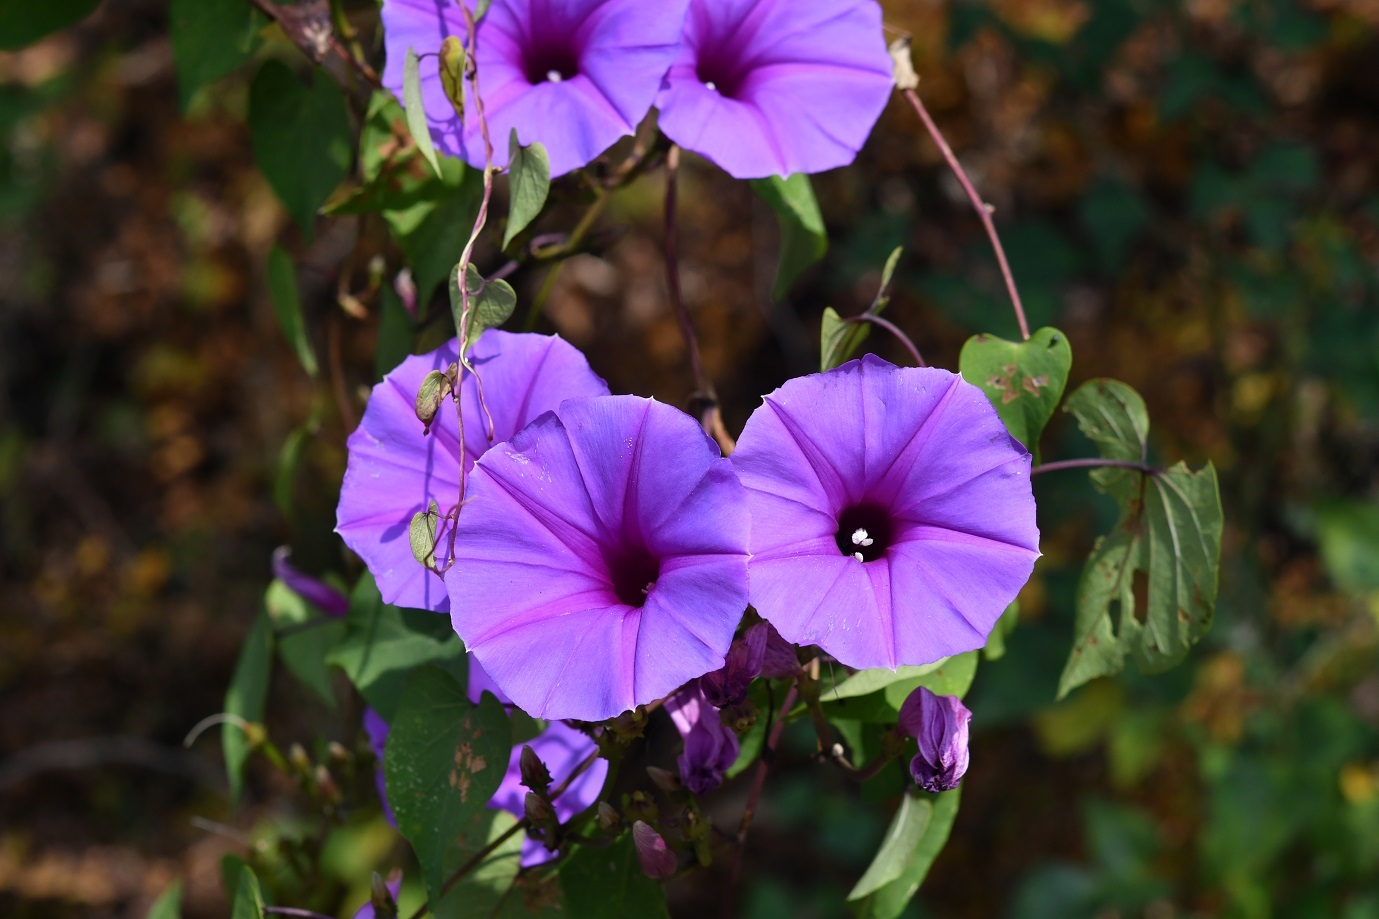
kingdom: Plantae
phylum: Tracheophyta
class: Magnoliopsida
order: Solanales
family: Convolvulaceae
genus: Ipomoea
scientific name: Ipomoea pedicellaris
